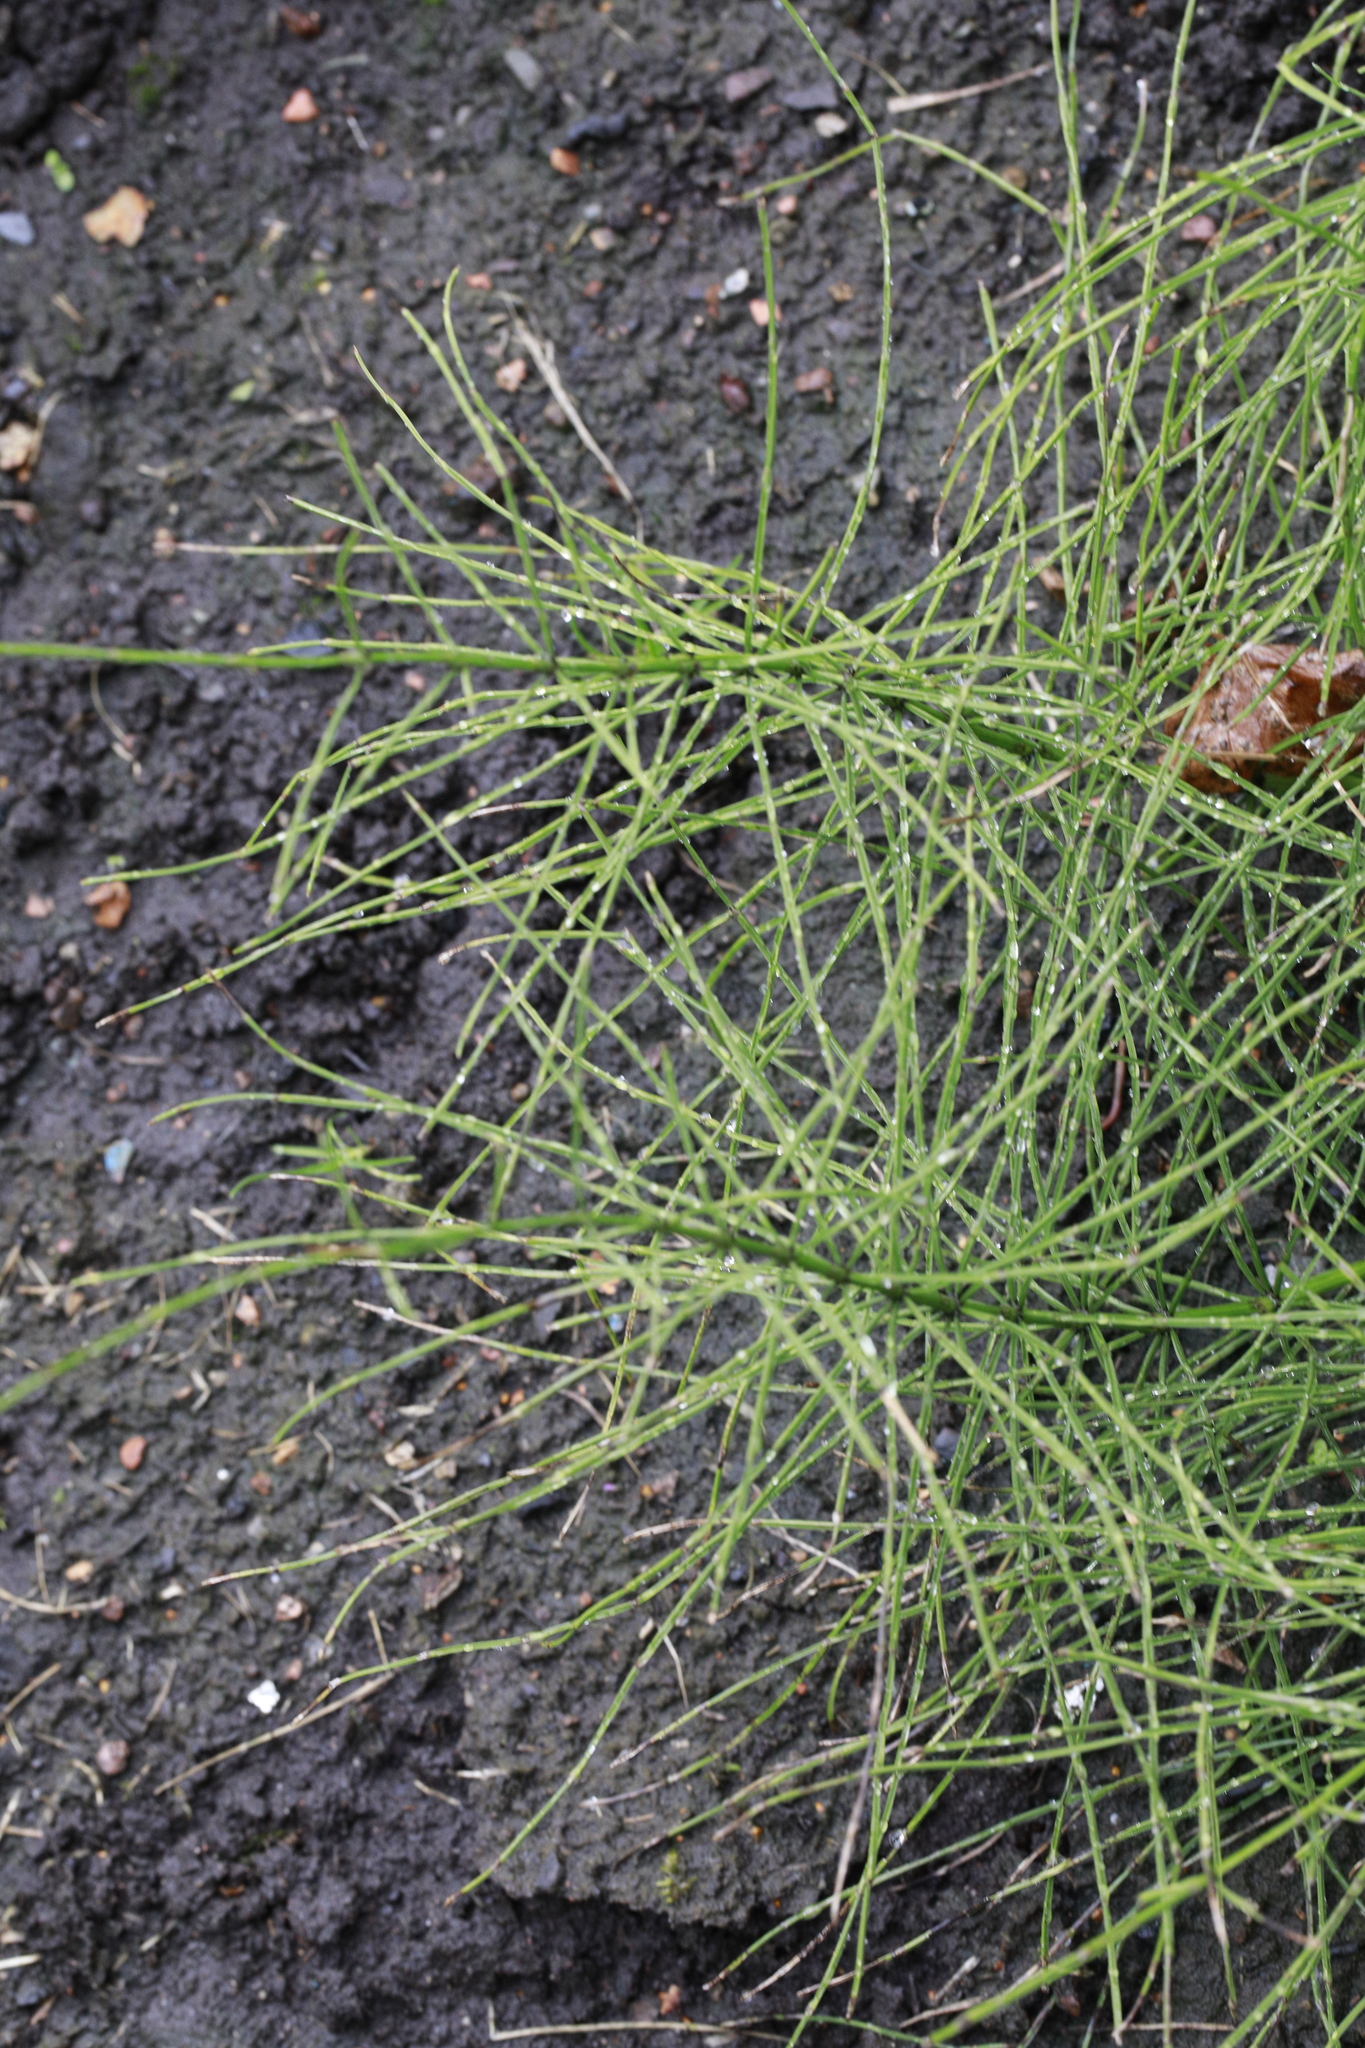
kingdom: Plantae
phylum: Tracheophyta
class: Polypodiopsida
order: Equisetales
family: Equisetaceae
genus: Equisetum
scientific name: Equisetum arvense
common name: Field horsetail
